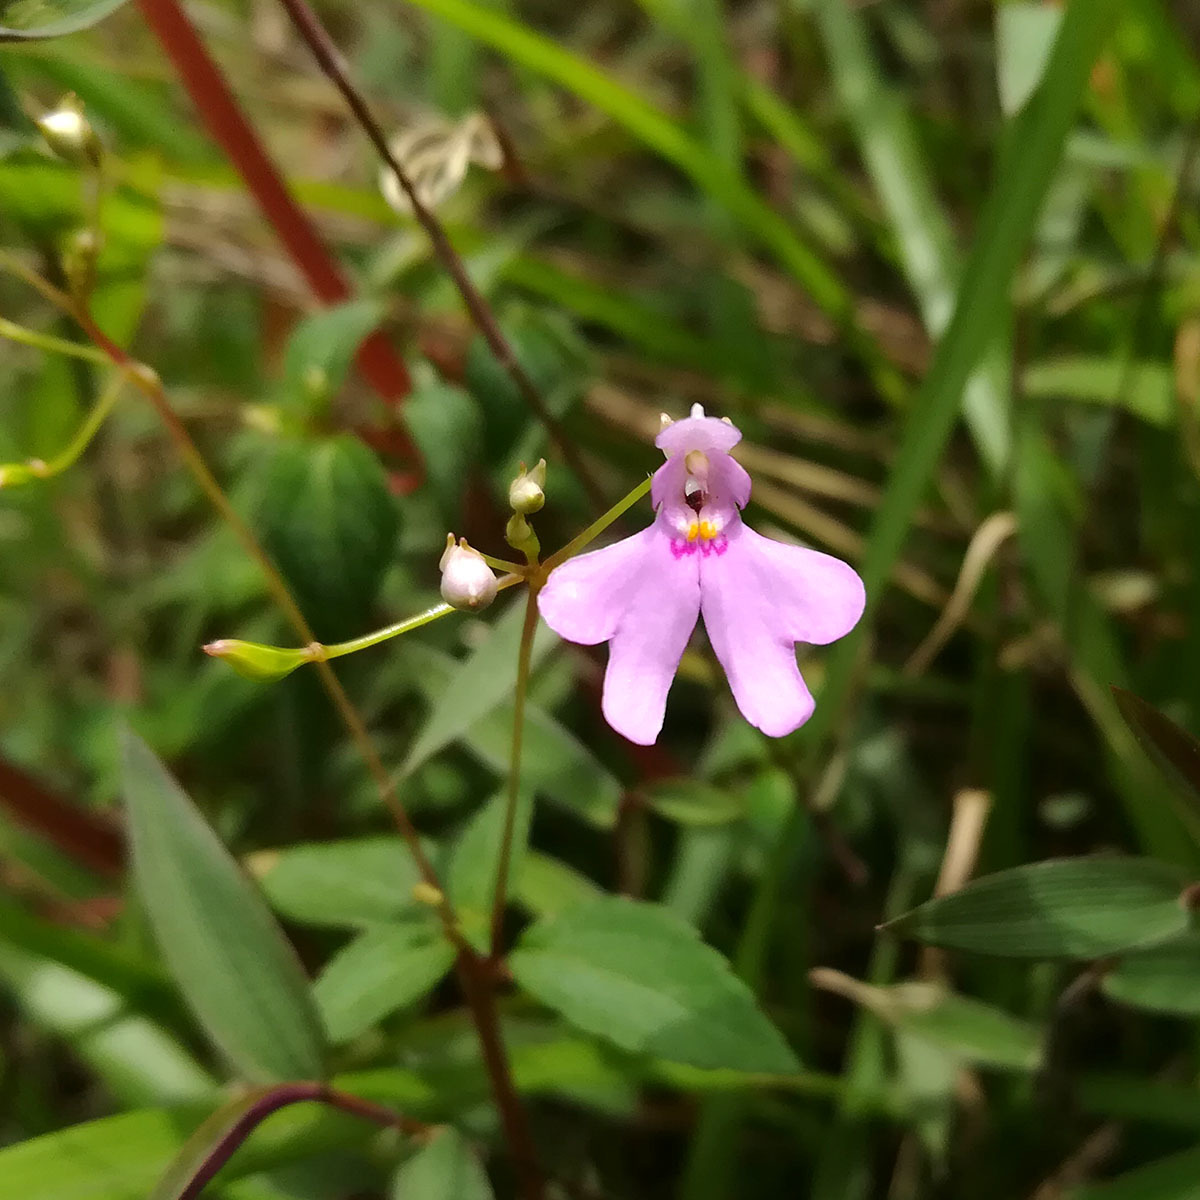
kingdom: Plantae
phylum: Tracheophyta
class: Magnoliopsida
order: Ericales
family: Balsaminaceae
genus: Impatiens
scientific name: Impatiens goughii
